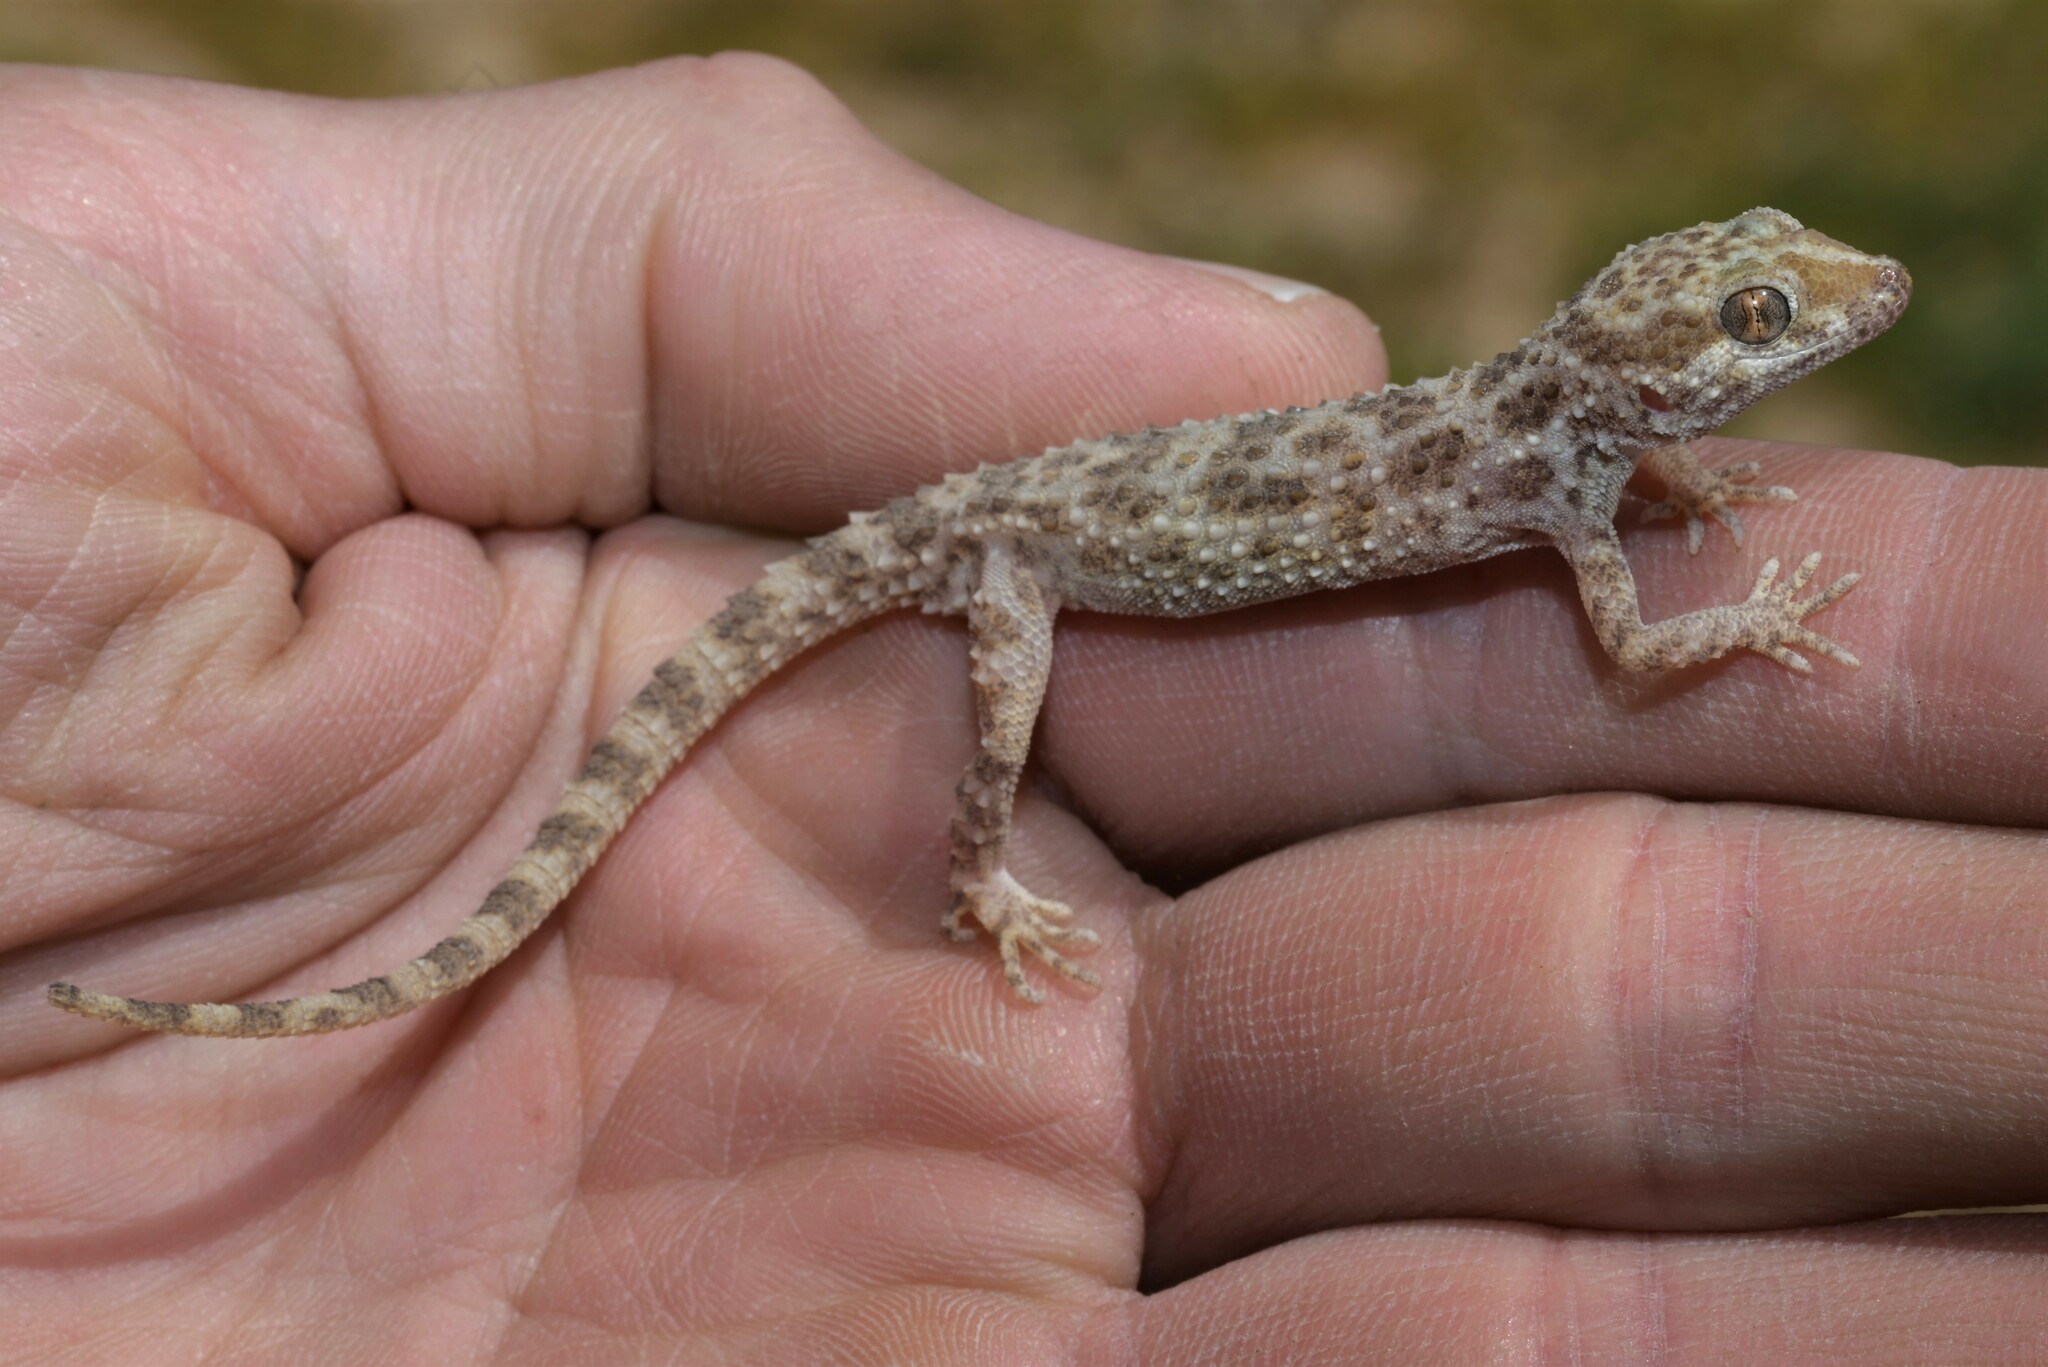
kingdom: Animalia
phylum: Chordata
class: Squamata
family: Gekkonidae
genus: Bunopus
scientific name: Bunopus tuberculatus
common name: Southern tuberculated gecko
